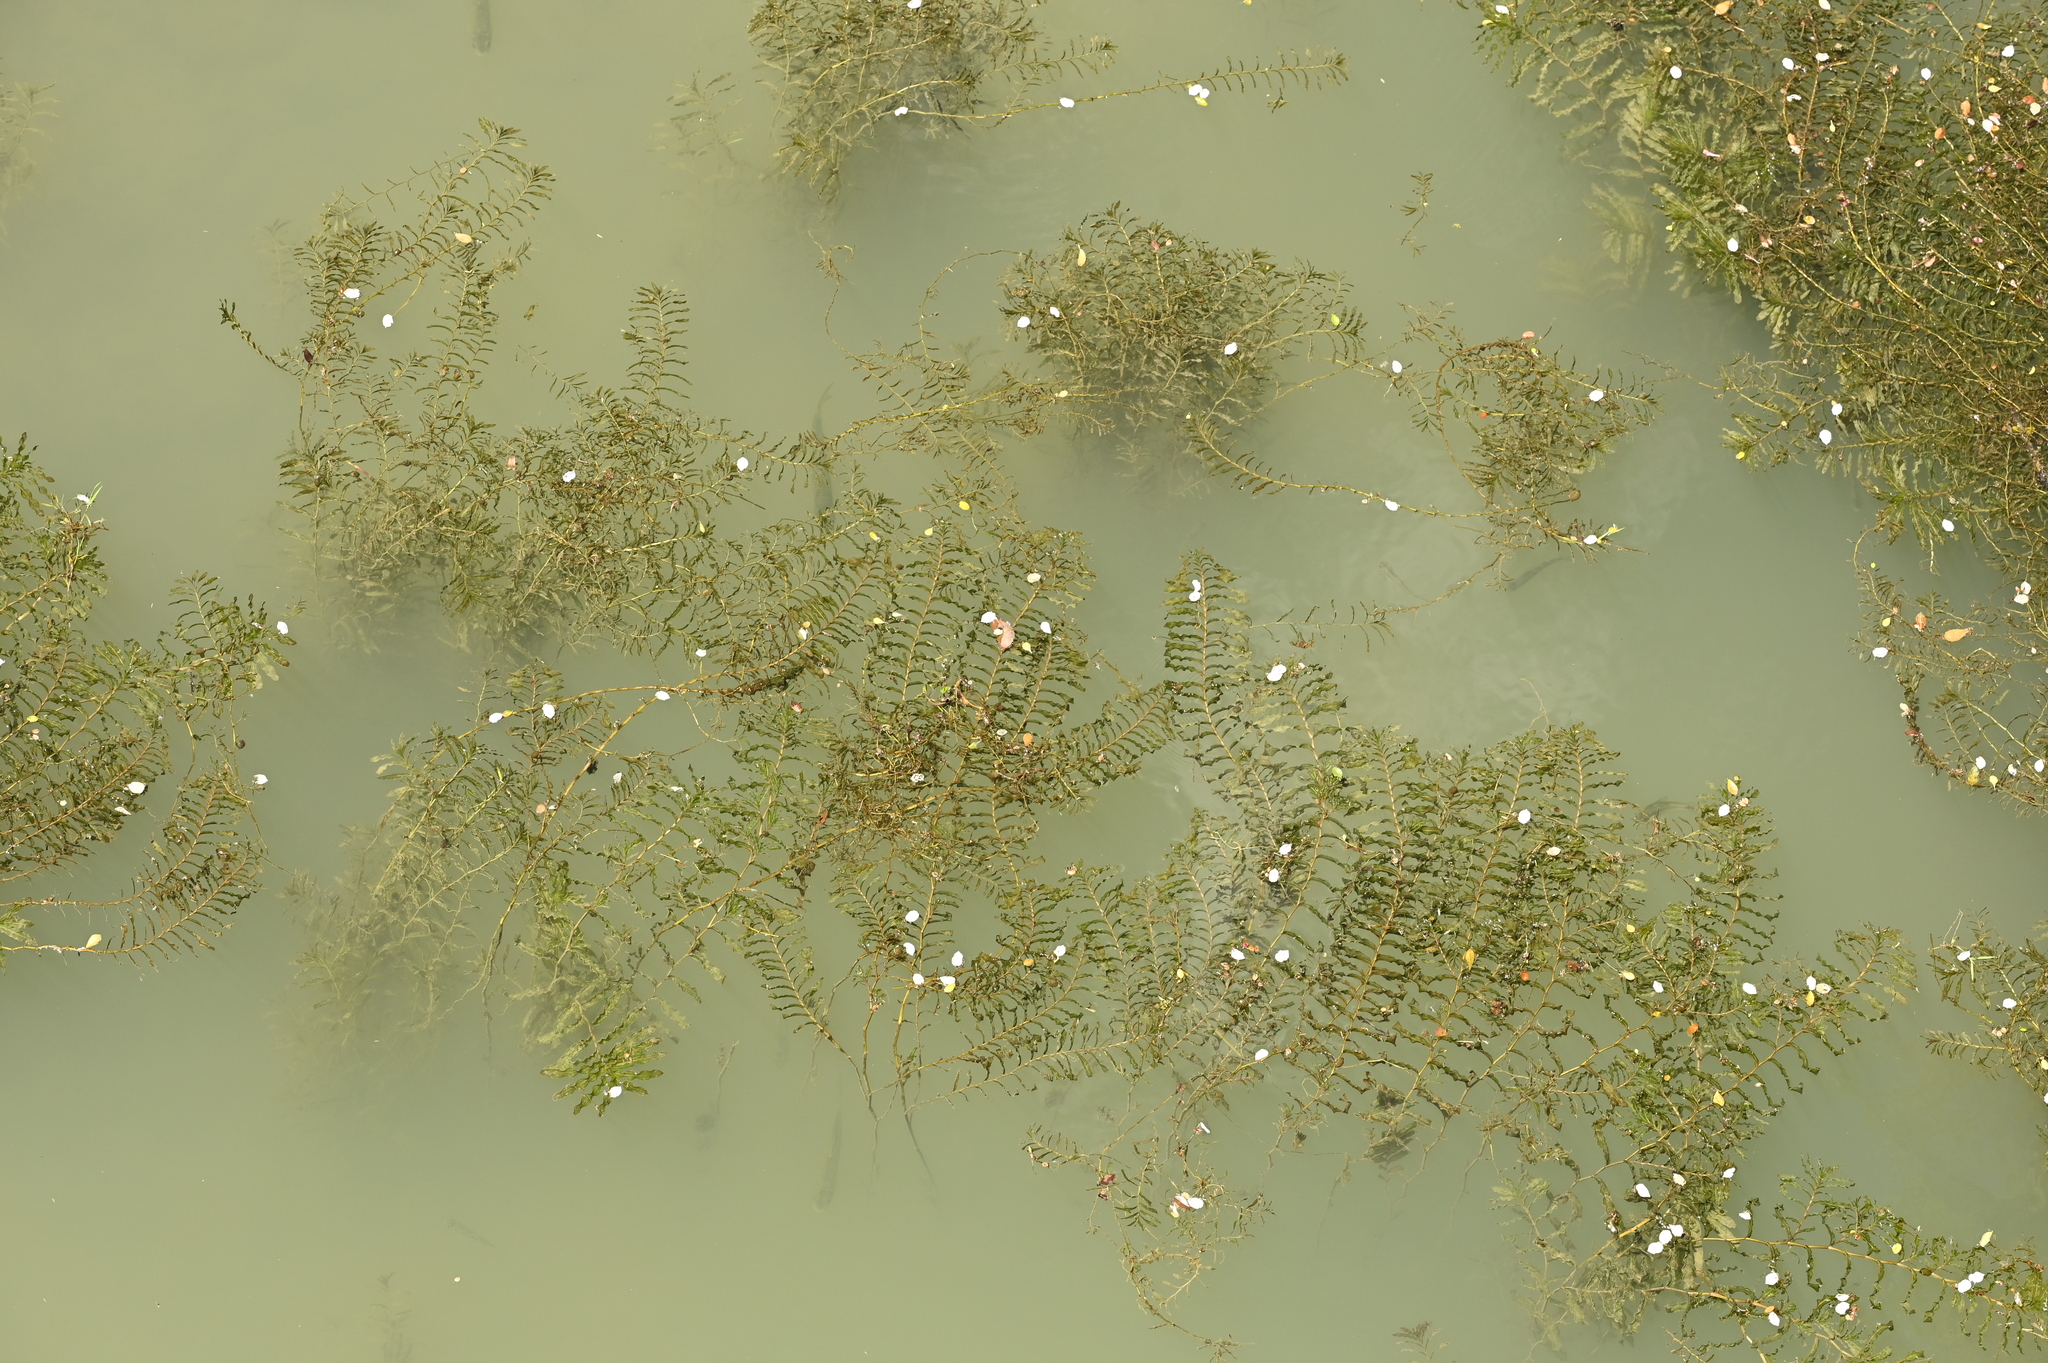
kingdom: Plantae
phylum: Tracheophyta
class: Liliopsida
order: Alismatales
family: Potamogetonaceae
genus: Potamogeton
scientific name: Potamogeton crispus
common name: Curled pondweed
